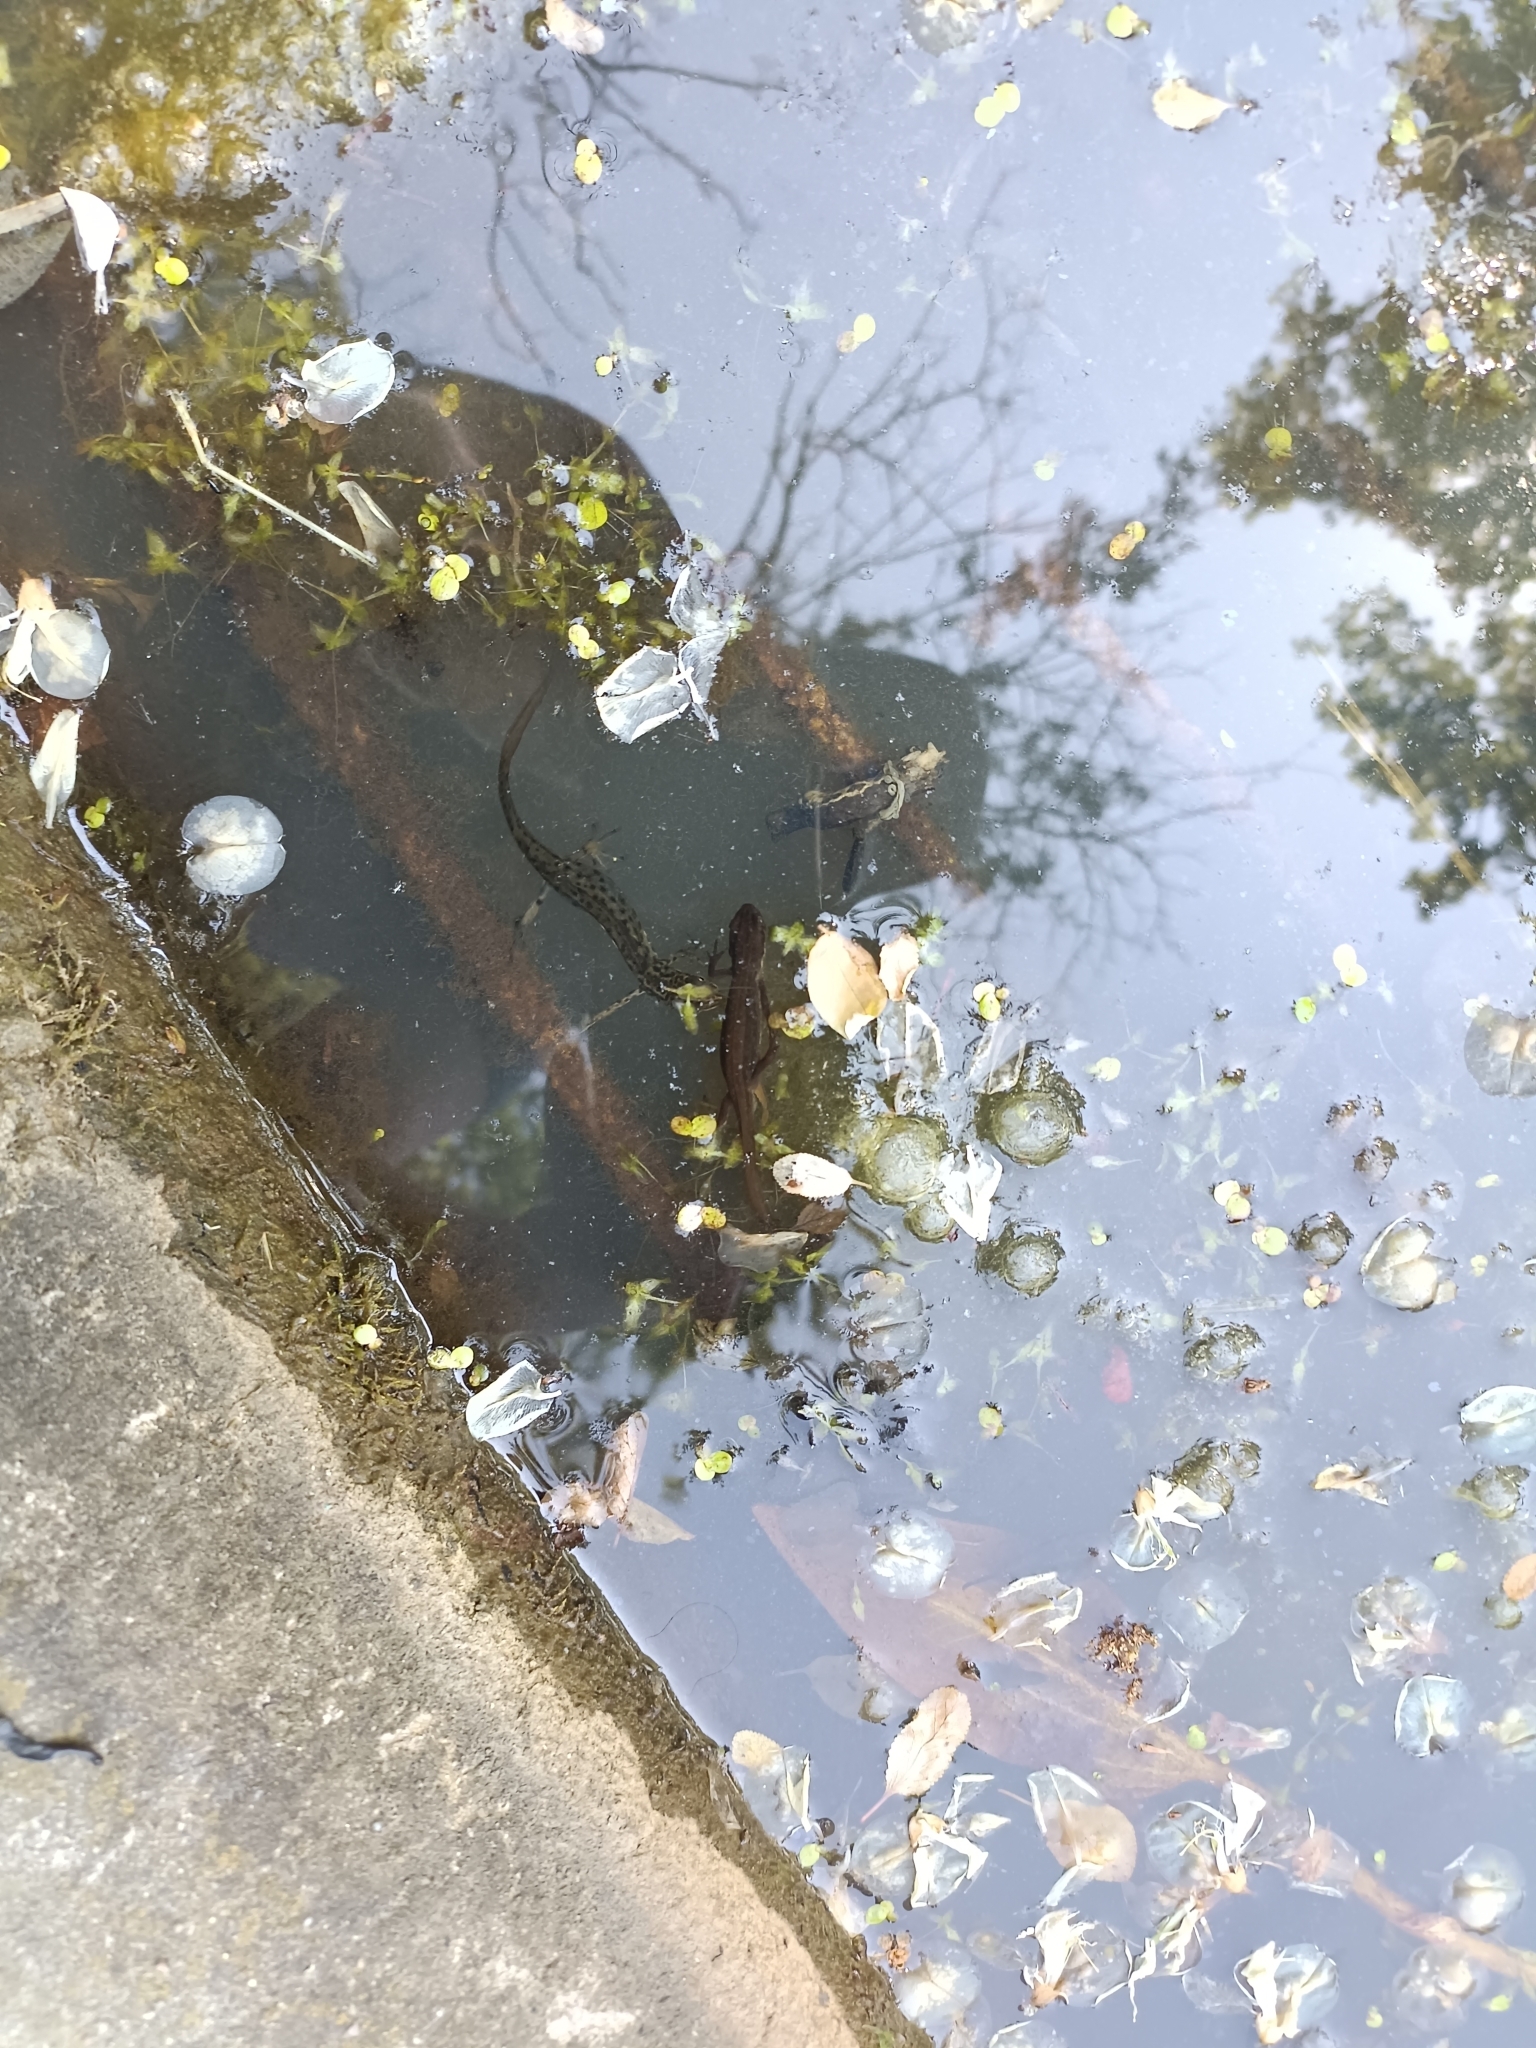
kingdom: Animalia
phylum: Chordata
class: Amphibia
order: Caudata
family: Salamandridae
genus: Lissotriton
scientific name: Lissotriton vulgaris
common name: Smooth newt
